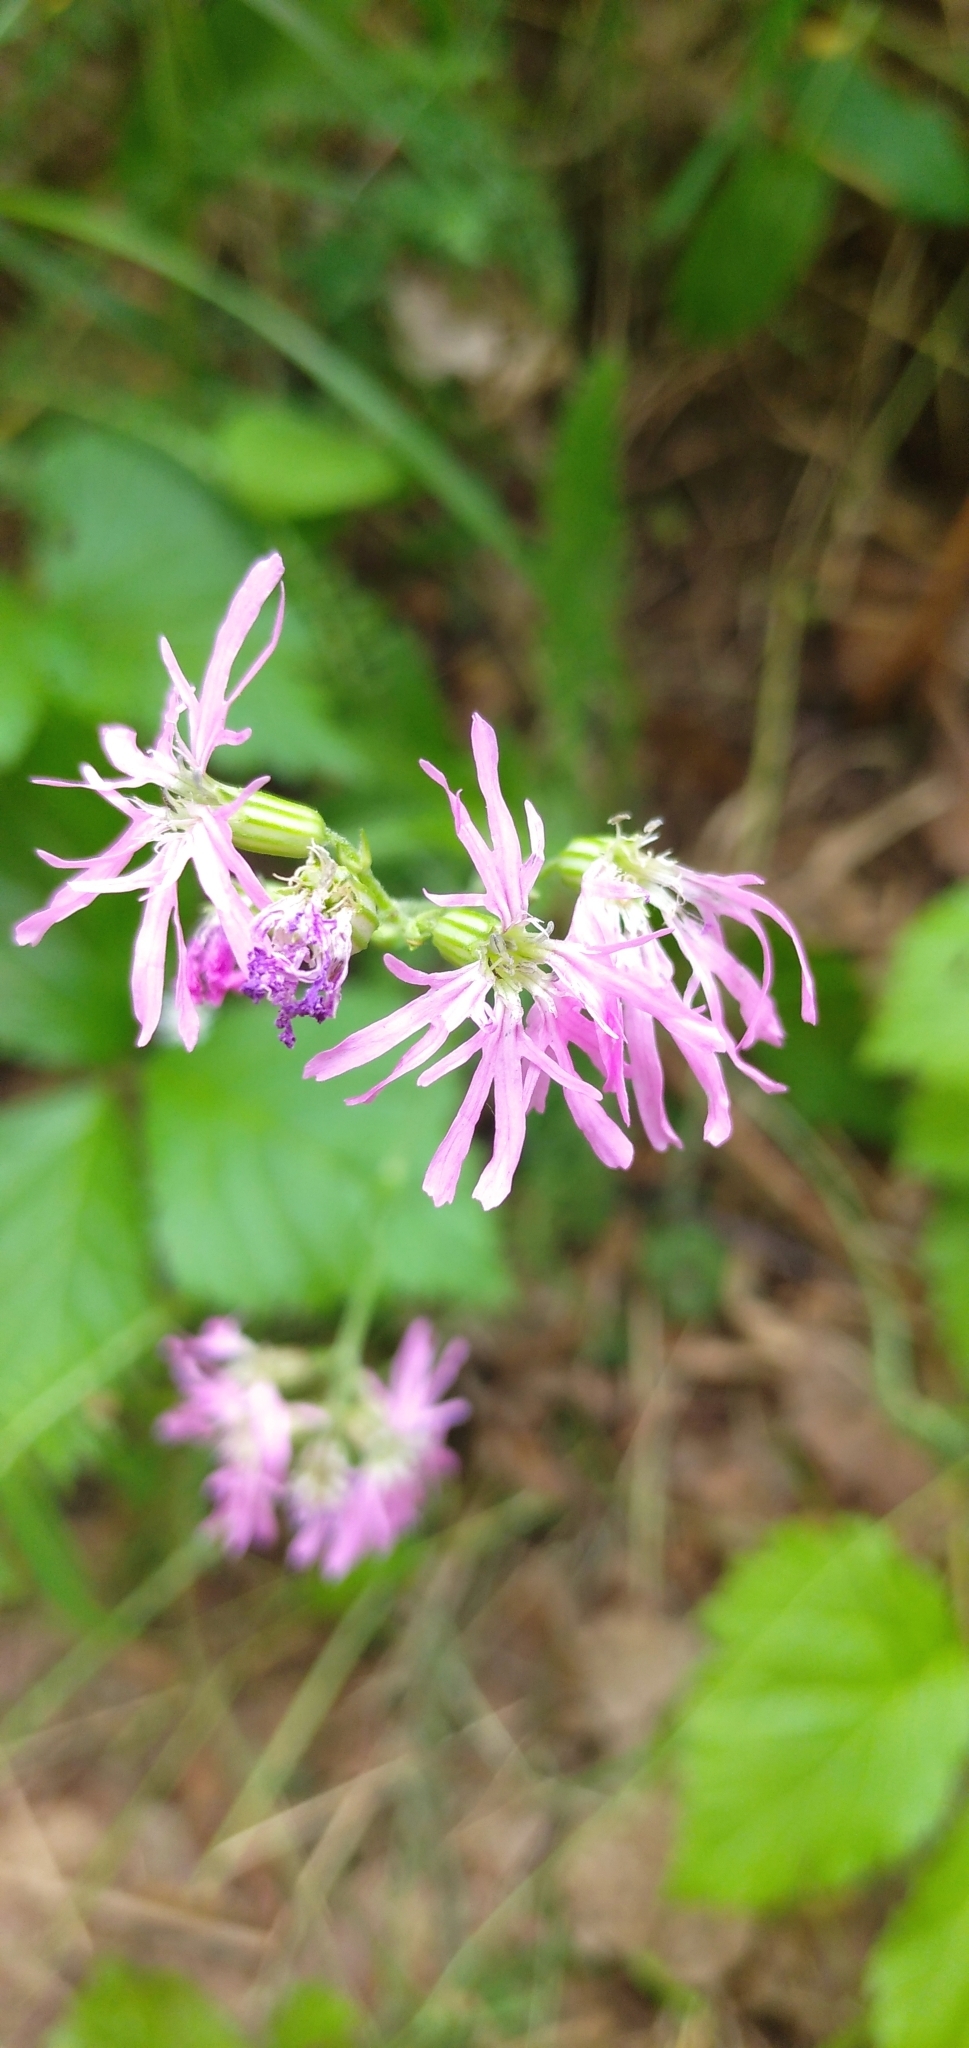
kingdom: Plantae
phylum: Tracheophyta
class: Magnoliopsida
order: Caryophyllales
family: Caryophyllaceae
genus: Silene
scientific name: Silene flos-cuculi
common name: Ragged-robin
